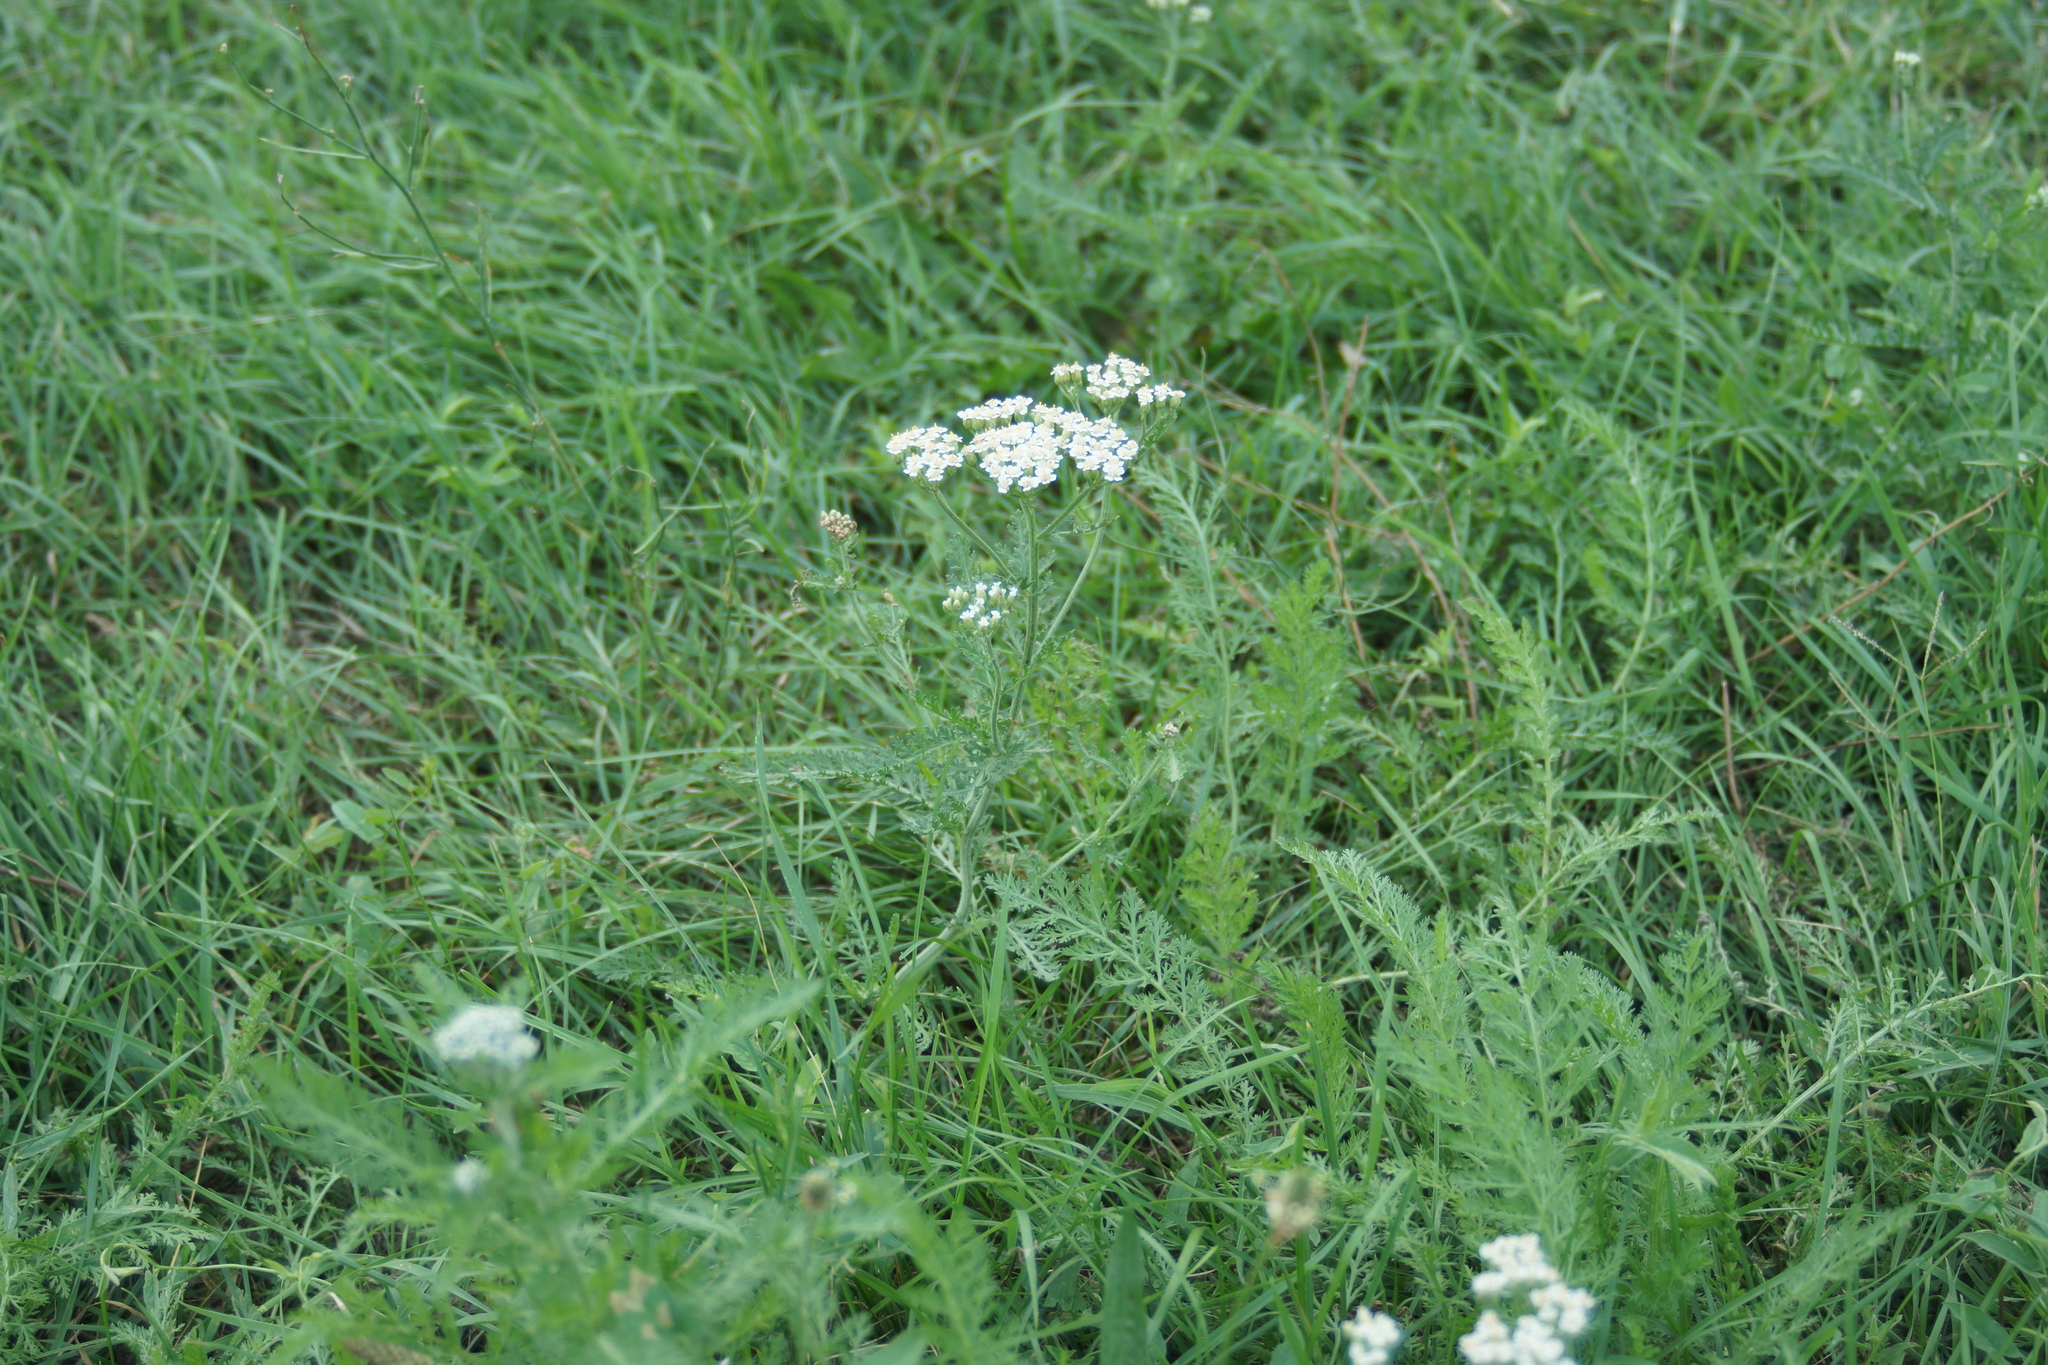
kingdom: Plantae
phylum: Tracheophyta
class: Magnoliopsida
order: Asterales
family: Asteraceae
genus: Achillea
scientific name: Achillea millefolium
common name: Yarrow
